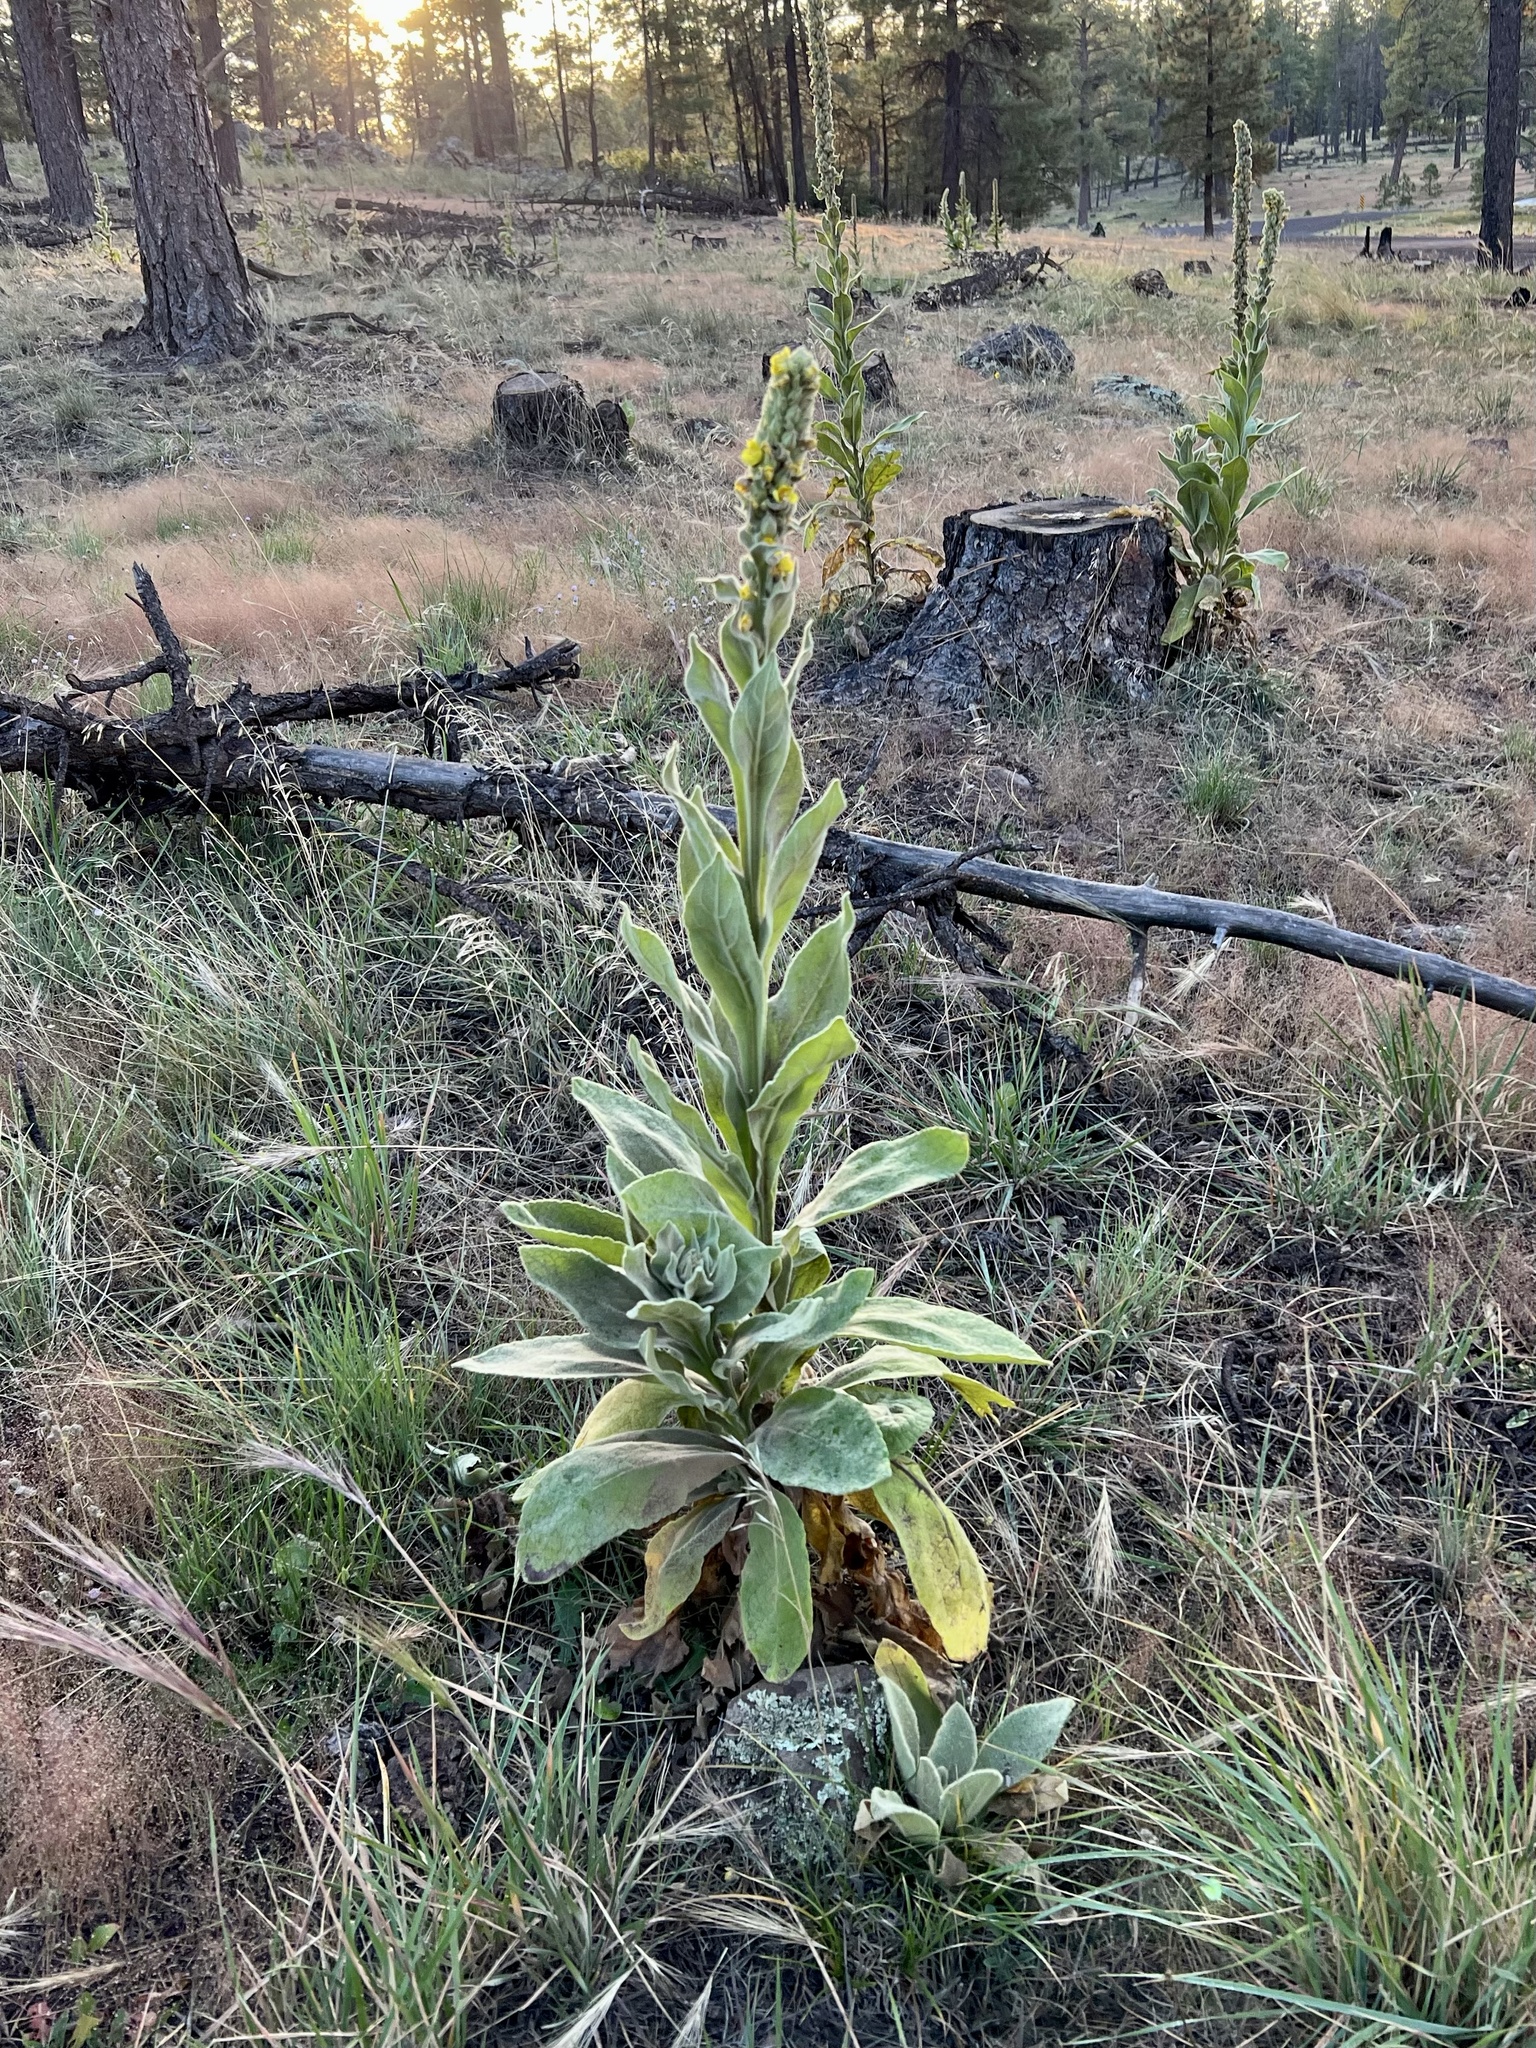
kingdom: Plantae
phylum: Tracheophyta
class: Magnoliopsida
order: Lamiales
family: Scrophulariaceae
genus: Verbascum
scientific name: Verbascum thapsus
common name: Common mullein
